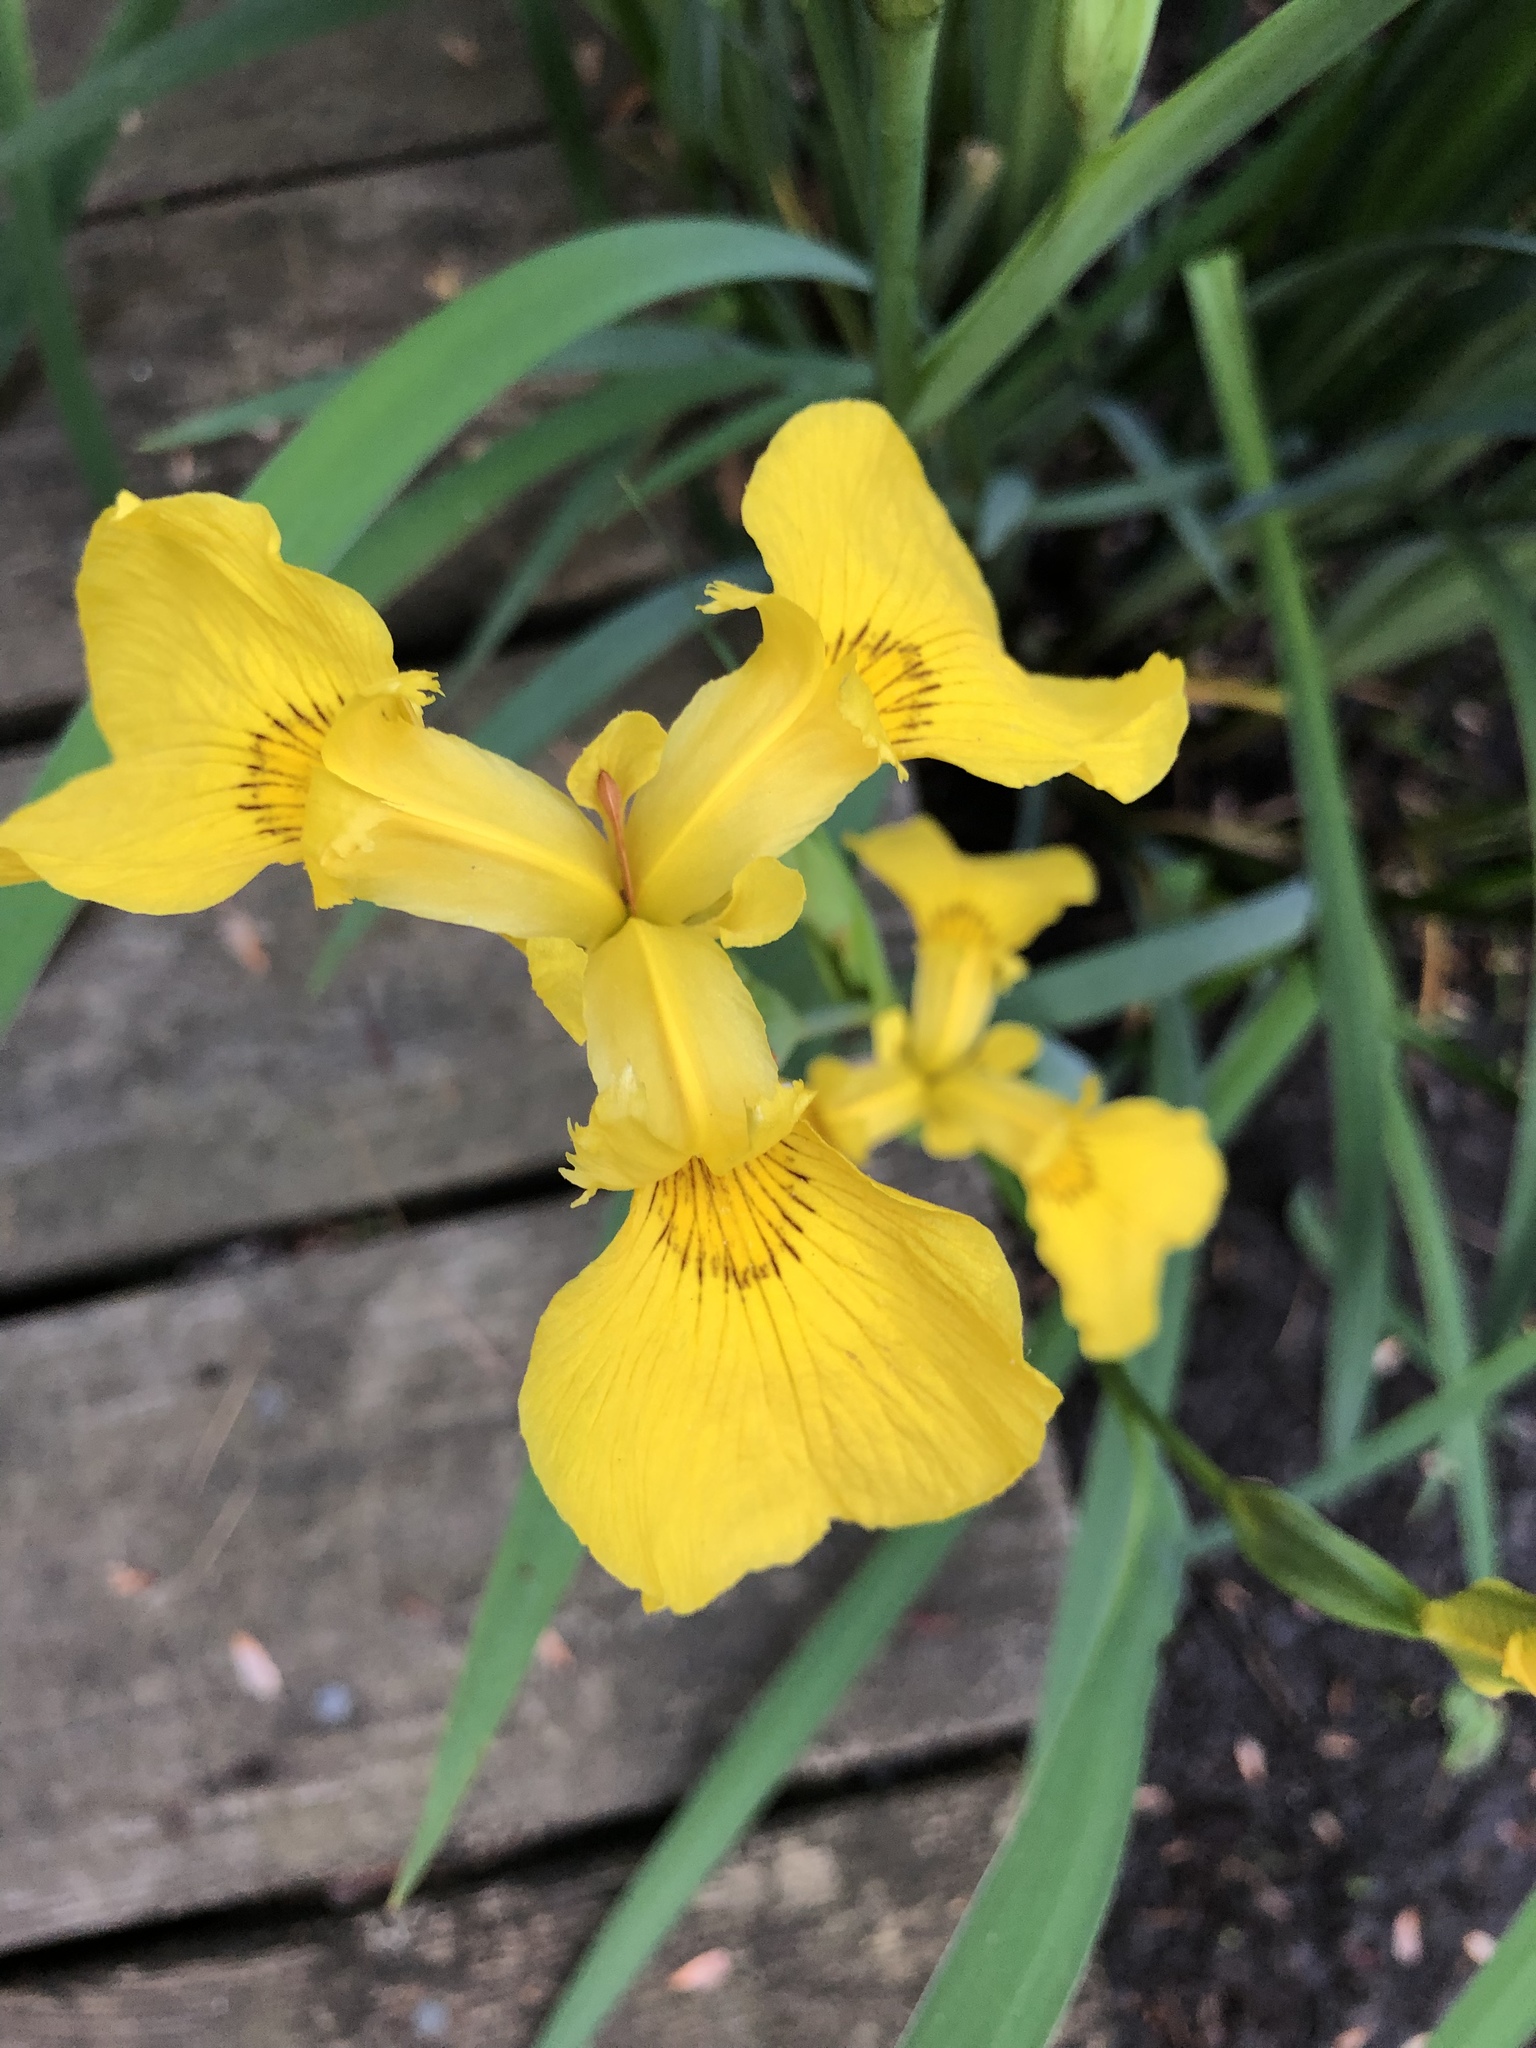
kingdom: Plantae
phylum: Tracheophyta
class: Liliopsida
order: Asparagales
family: Iridaceae
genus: Iris
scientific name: Iris pseudacorus
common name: Yellow flag
